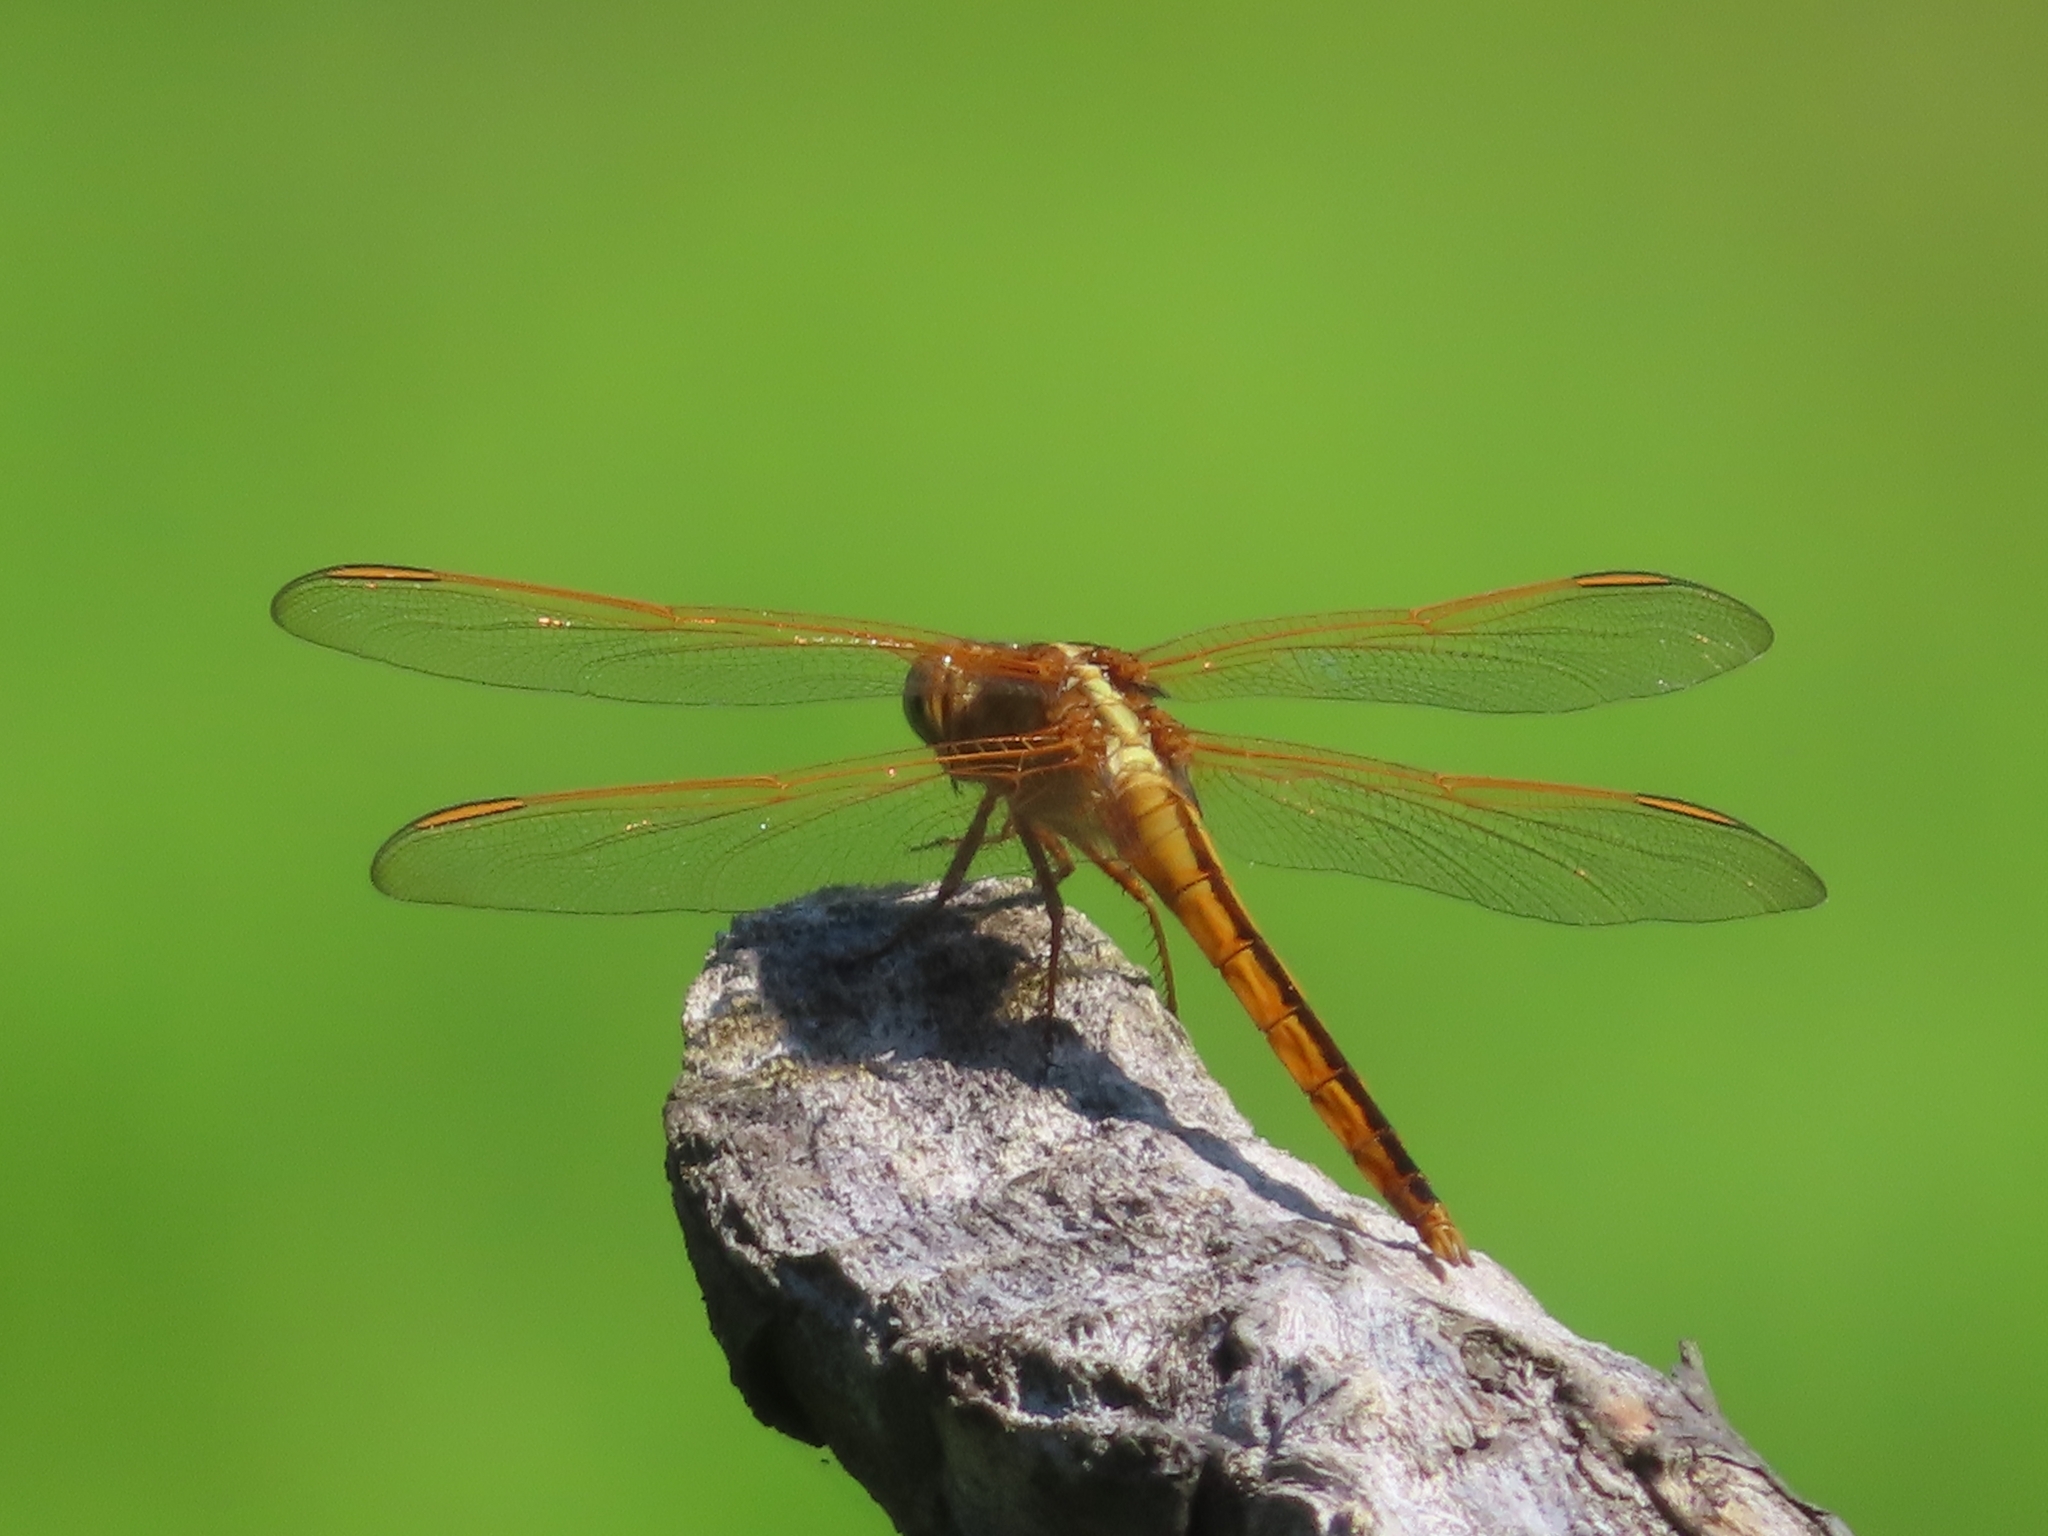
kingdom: Animalia
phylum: Arthropoda
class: Insecta
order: Odonata
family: Libellulidae
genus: Libellula
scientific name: Libellula needhami
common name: Needham's skimmer
